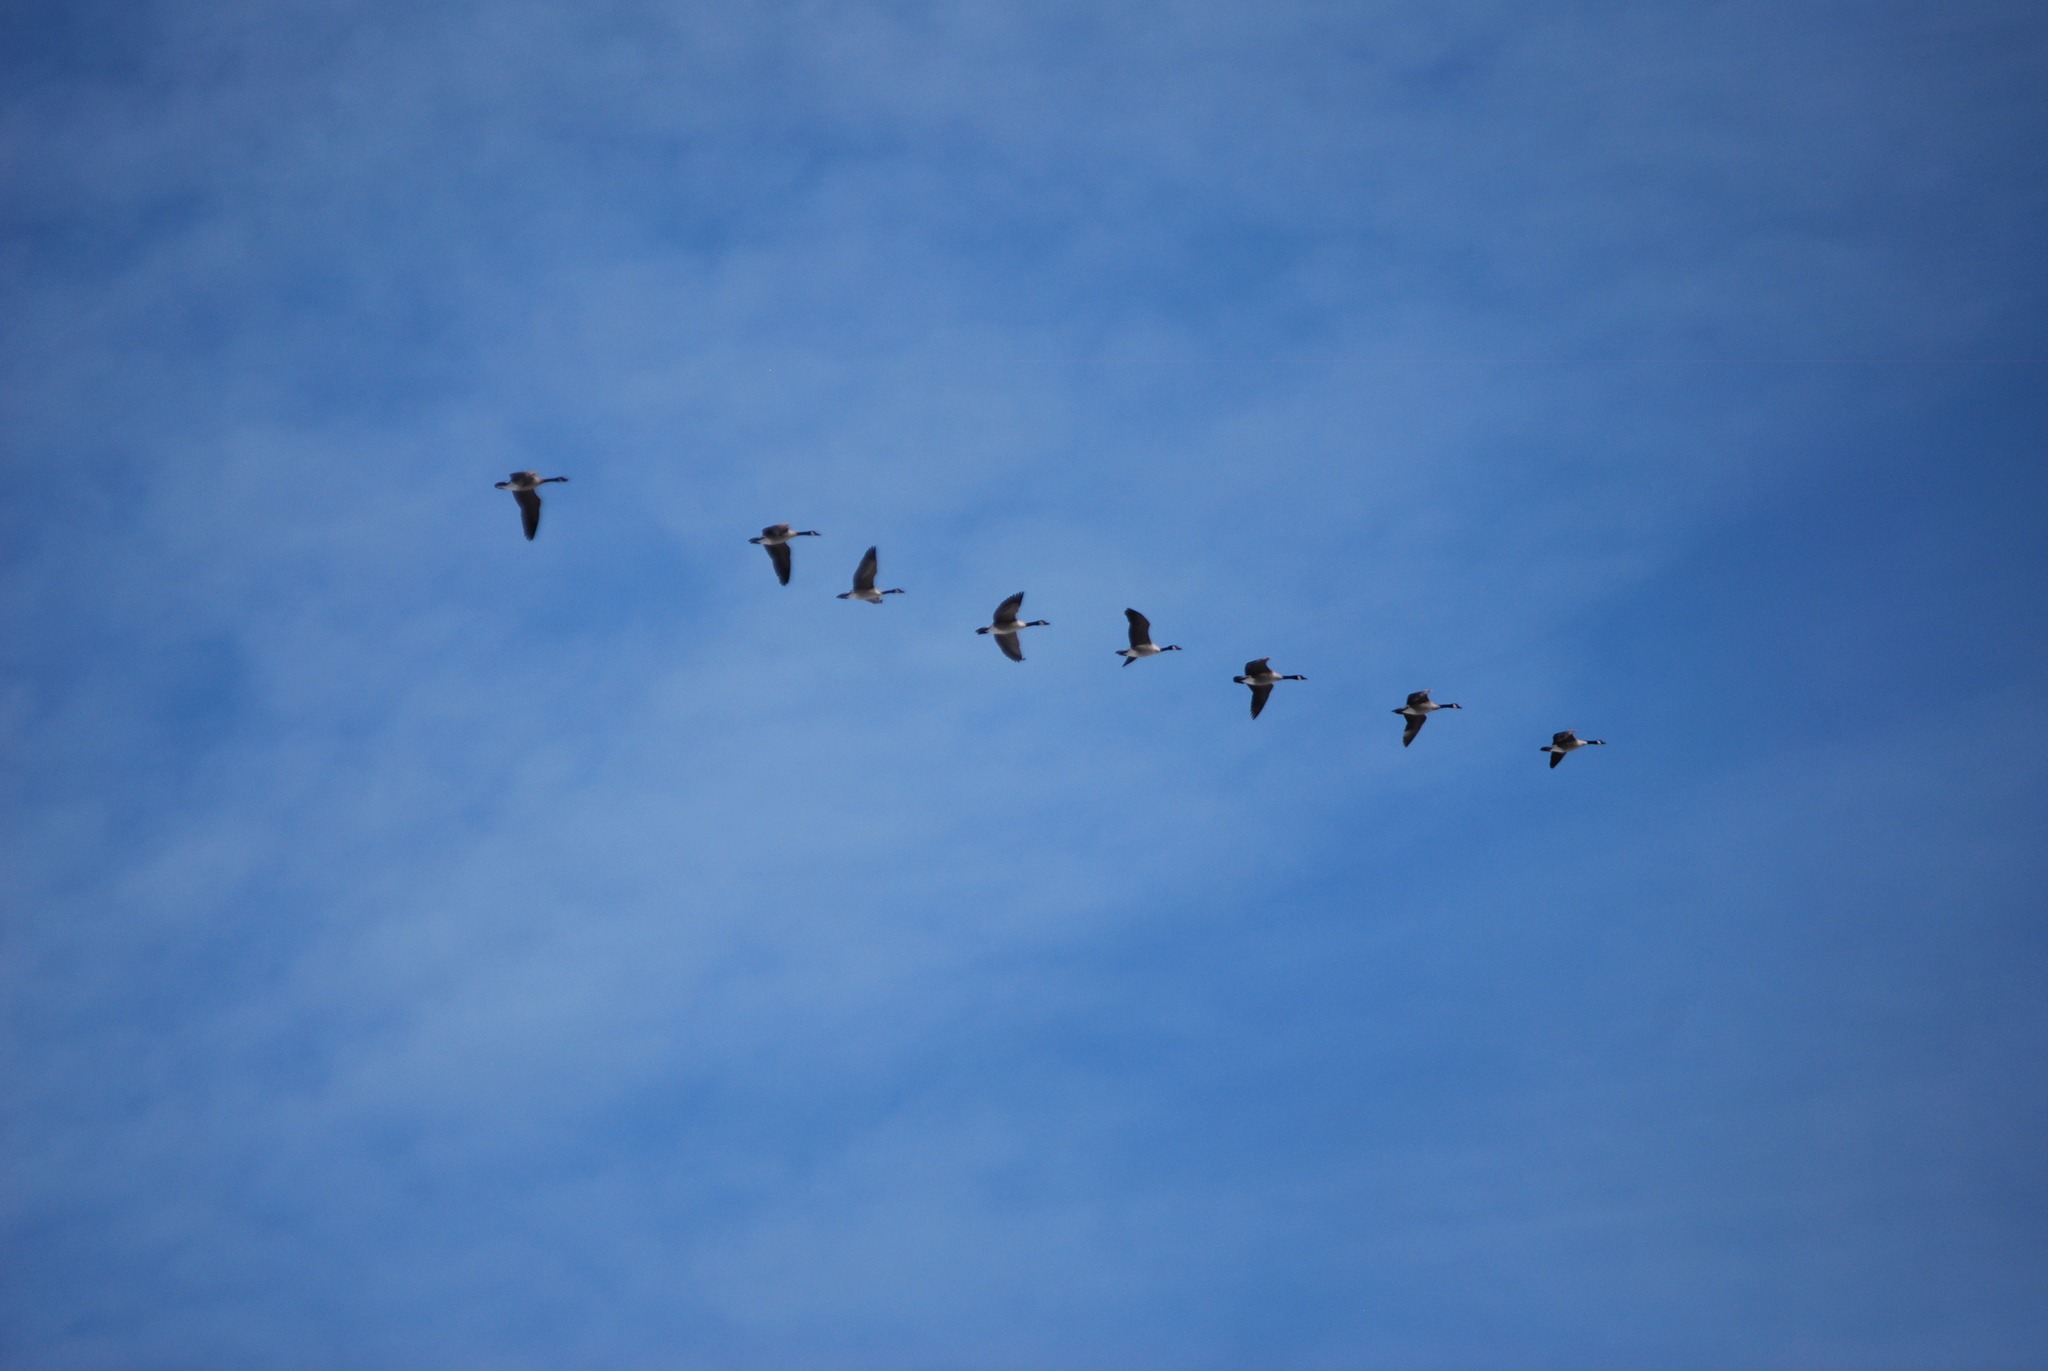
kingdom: Animalia
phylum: Chordata
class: Aves
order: Anseriformes
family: Anatidae
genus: Branta
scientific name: Branta canadensis
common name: Canada goose
